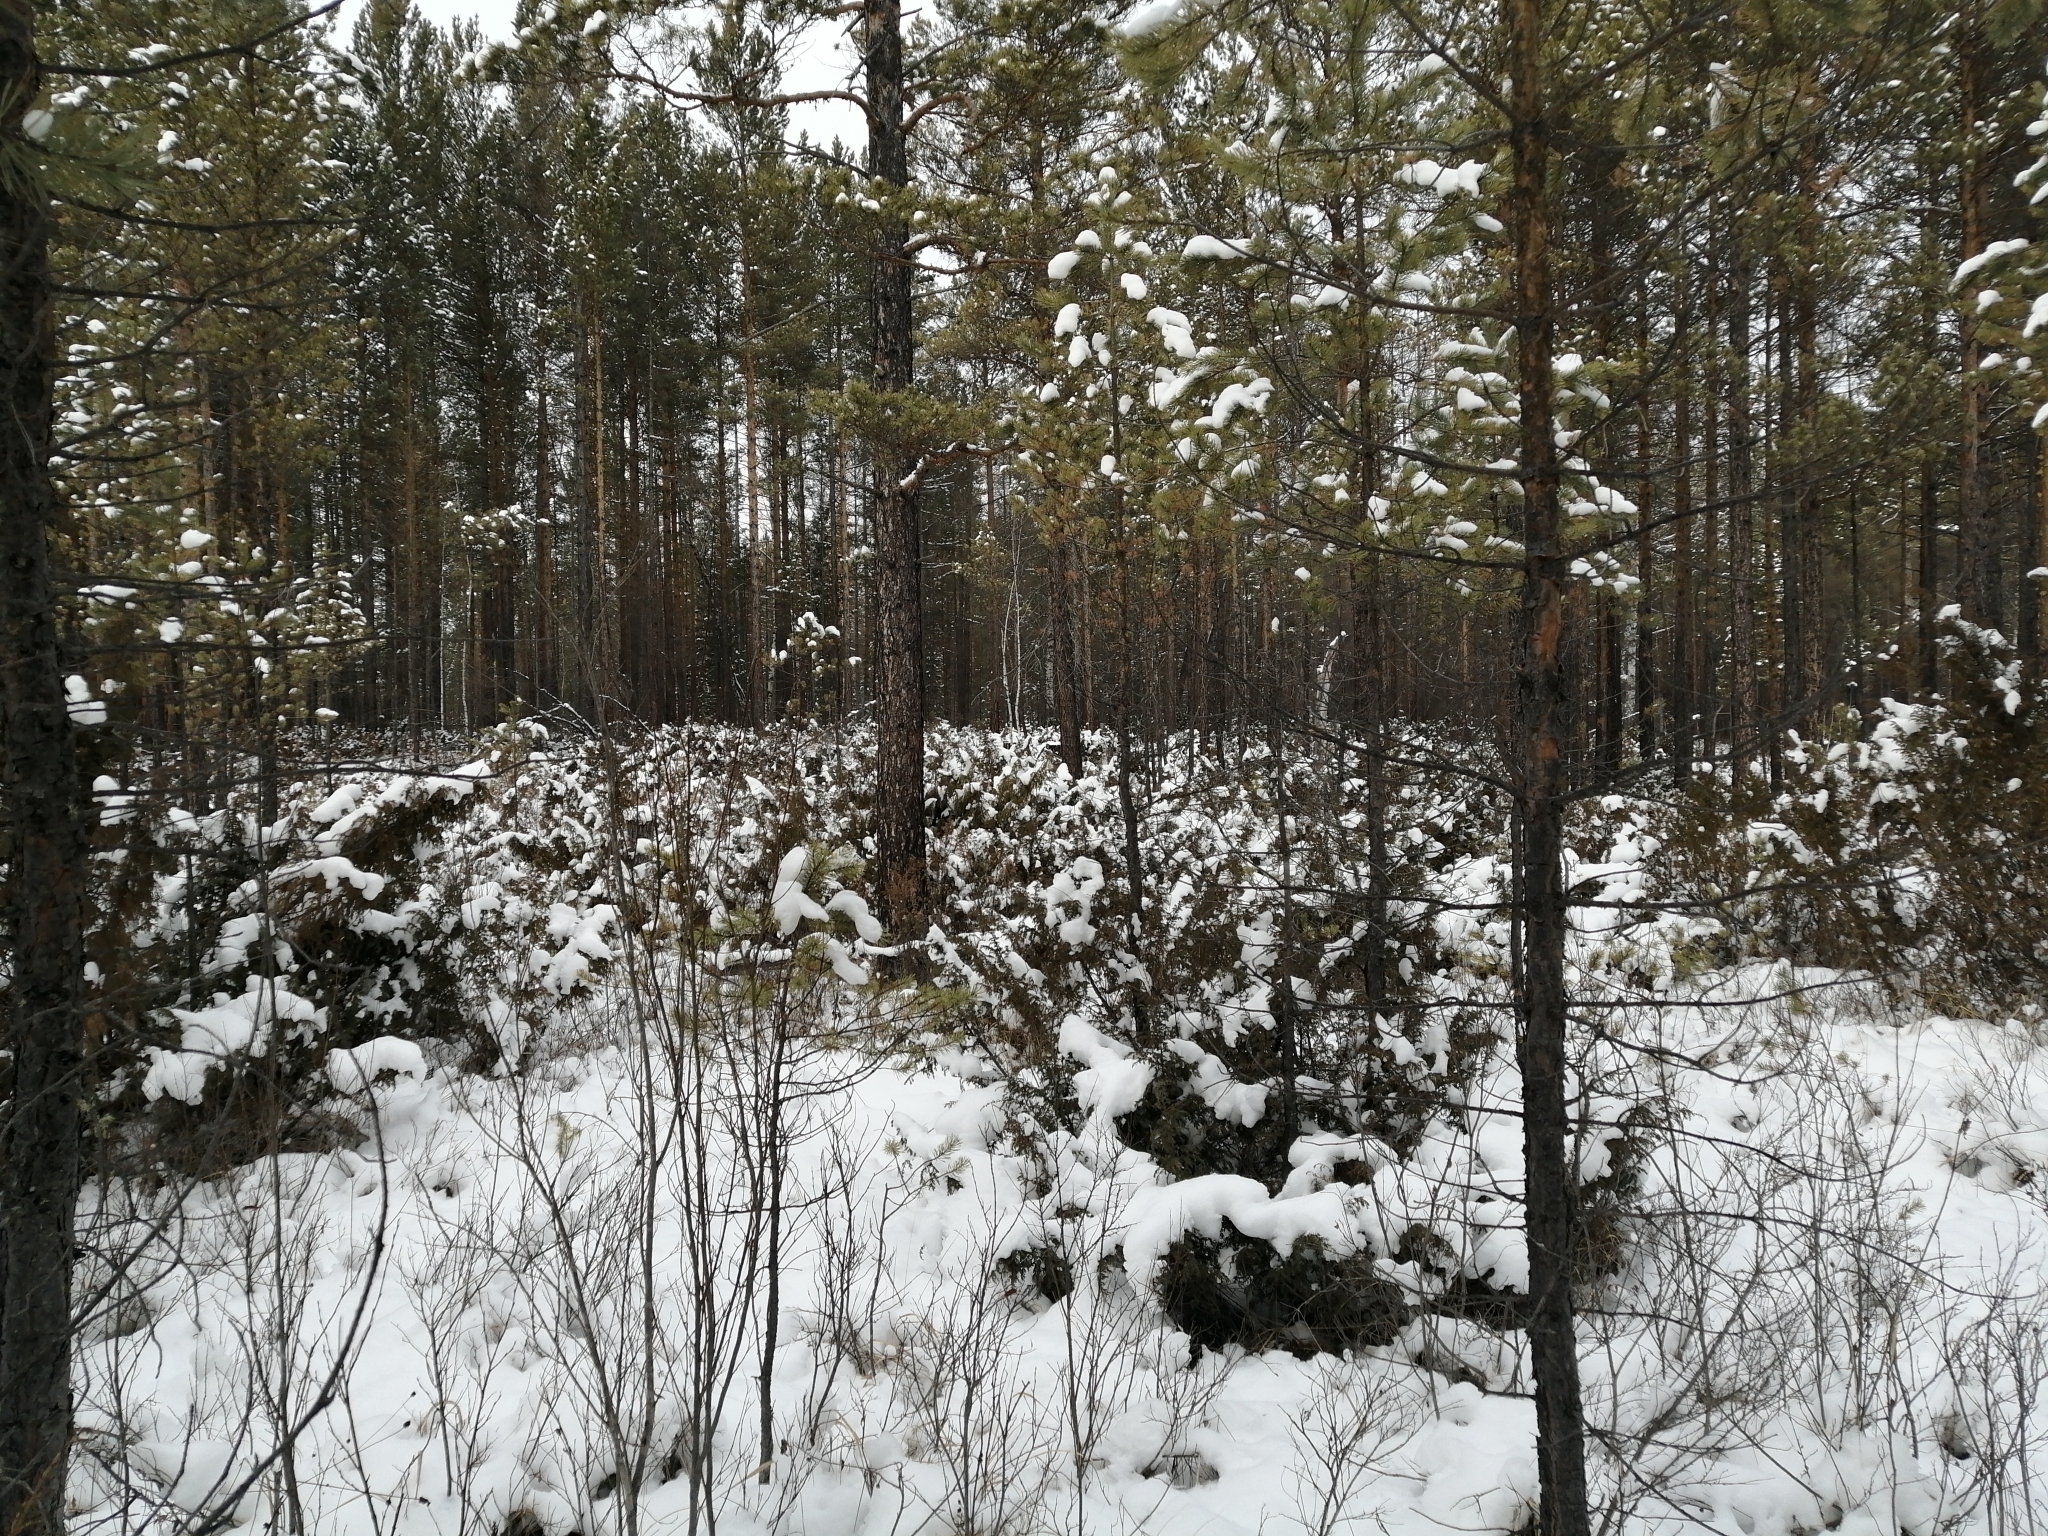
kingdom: Plantae
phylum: Tracheophyta
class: Pinopsida
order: Pinales
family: Pinaceae
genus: Pinus
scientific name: Pinus sylvestris
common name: Scots pine
